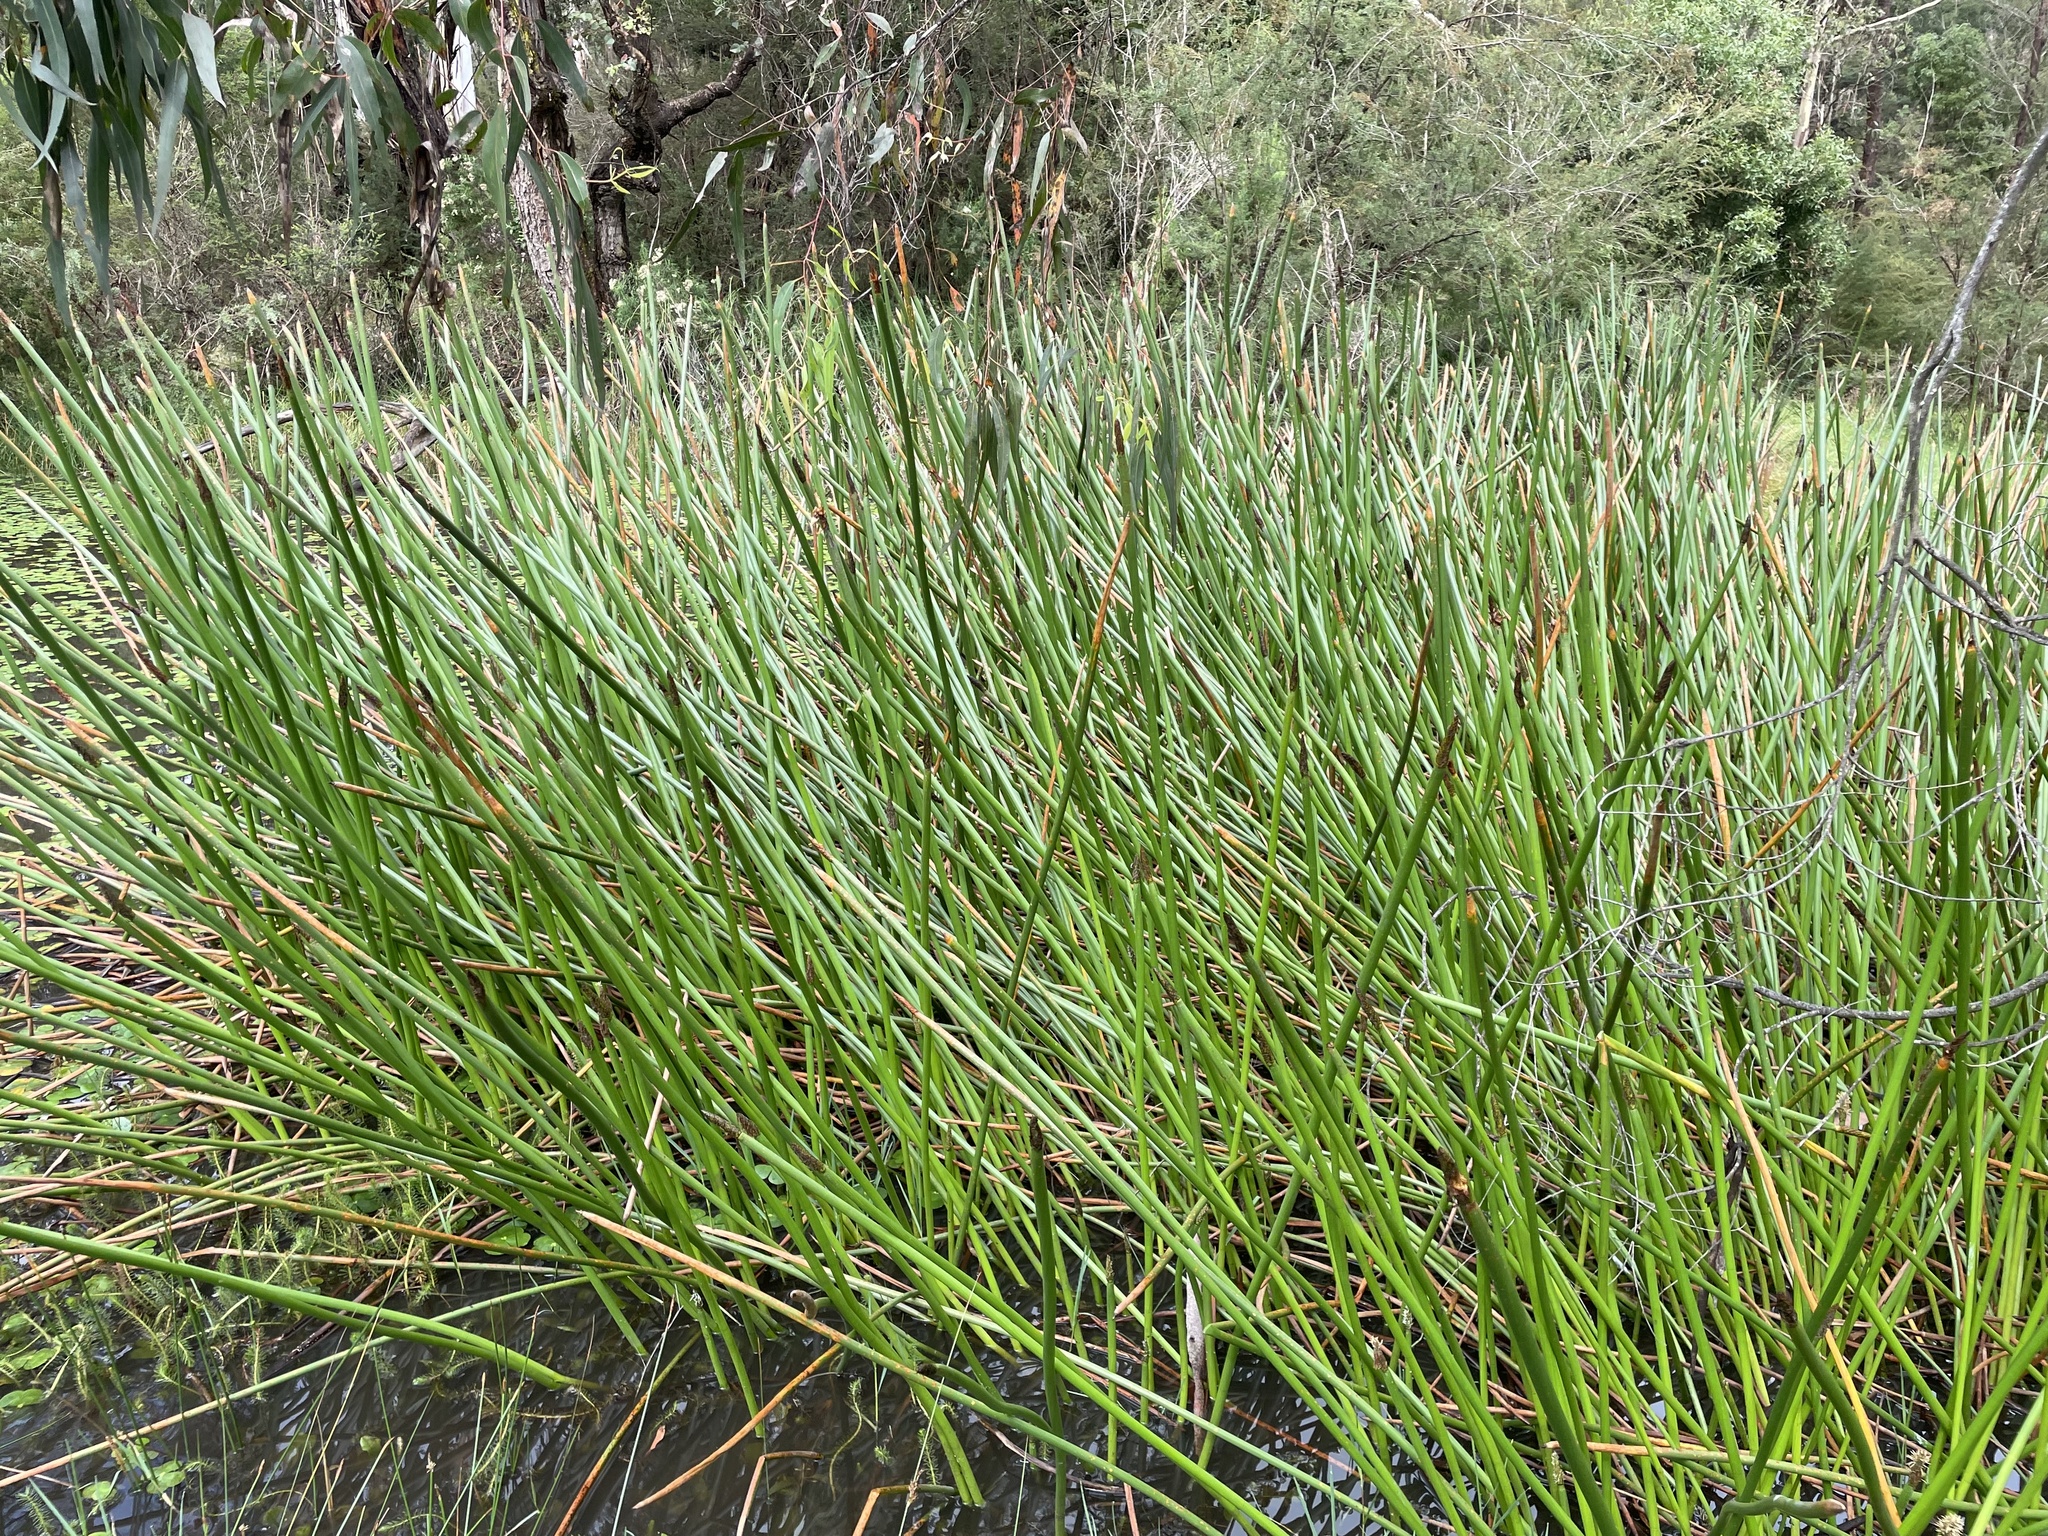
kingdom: Plantae
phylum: Tracheophyta
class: Liliopsida
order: Poales
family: Cyperaceae
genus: Eleocharis
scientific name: Eleocharis sphacelata
